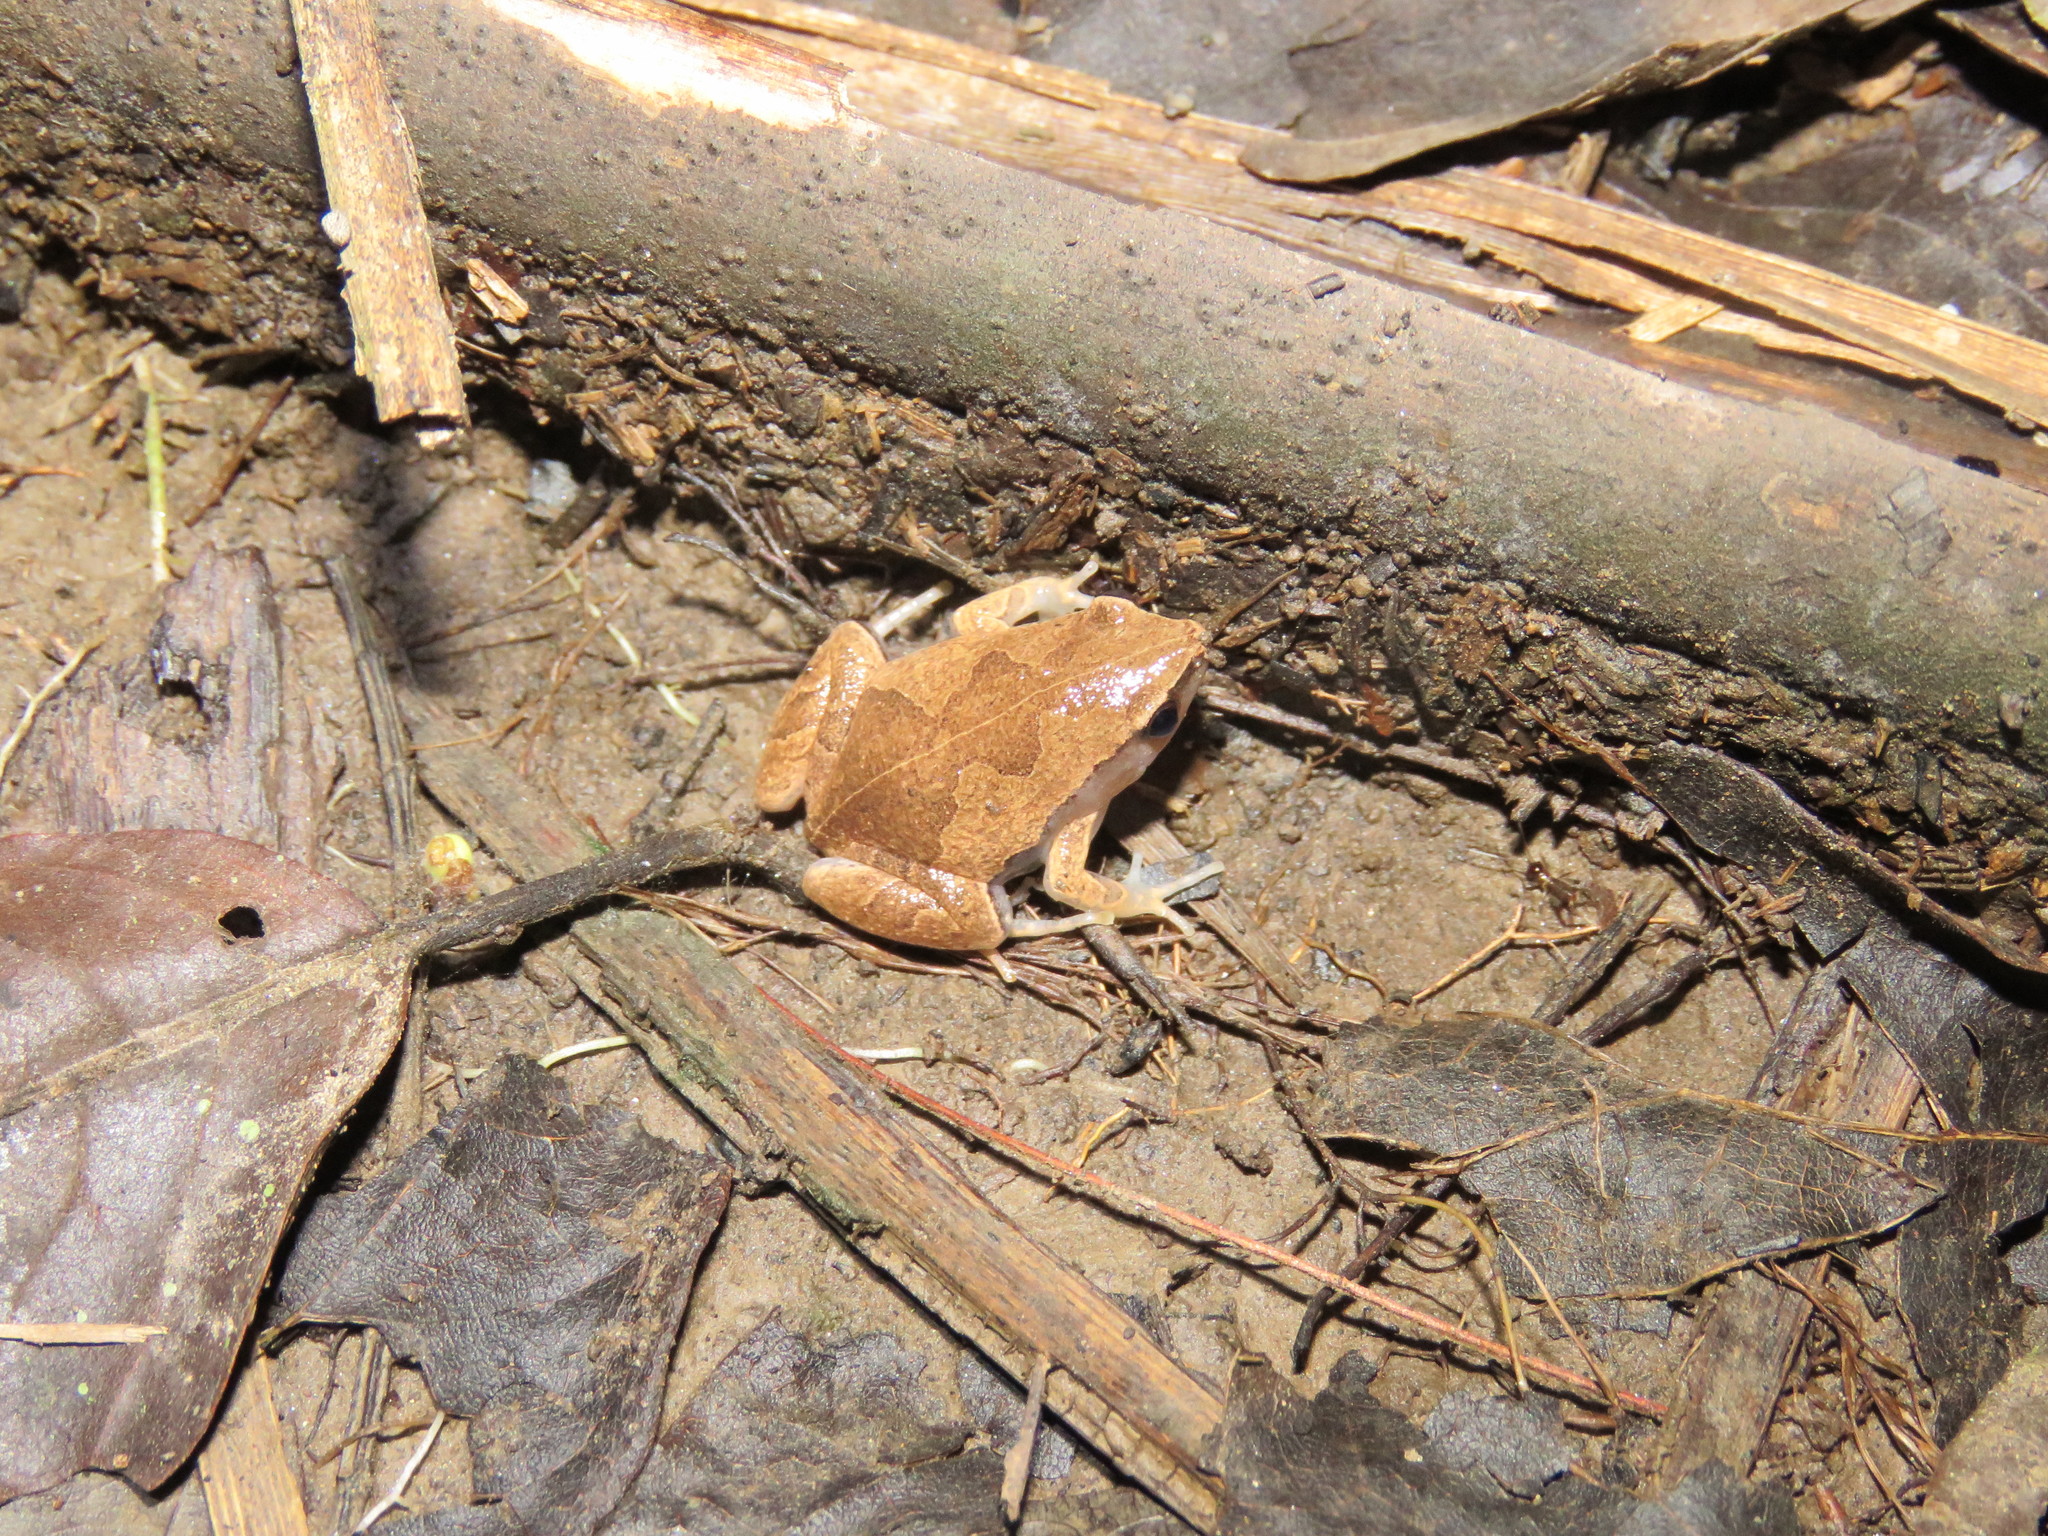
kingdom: Animalia
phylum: Chordata
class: Amphibia
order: Anura
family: Microhylidae
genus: Hamptophryne
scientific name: Hamptophryne boliviana
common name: Bolivian bleating frog
